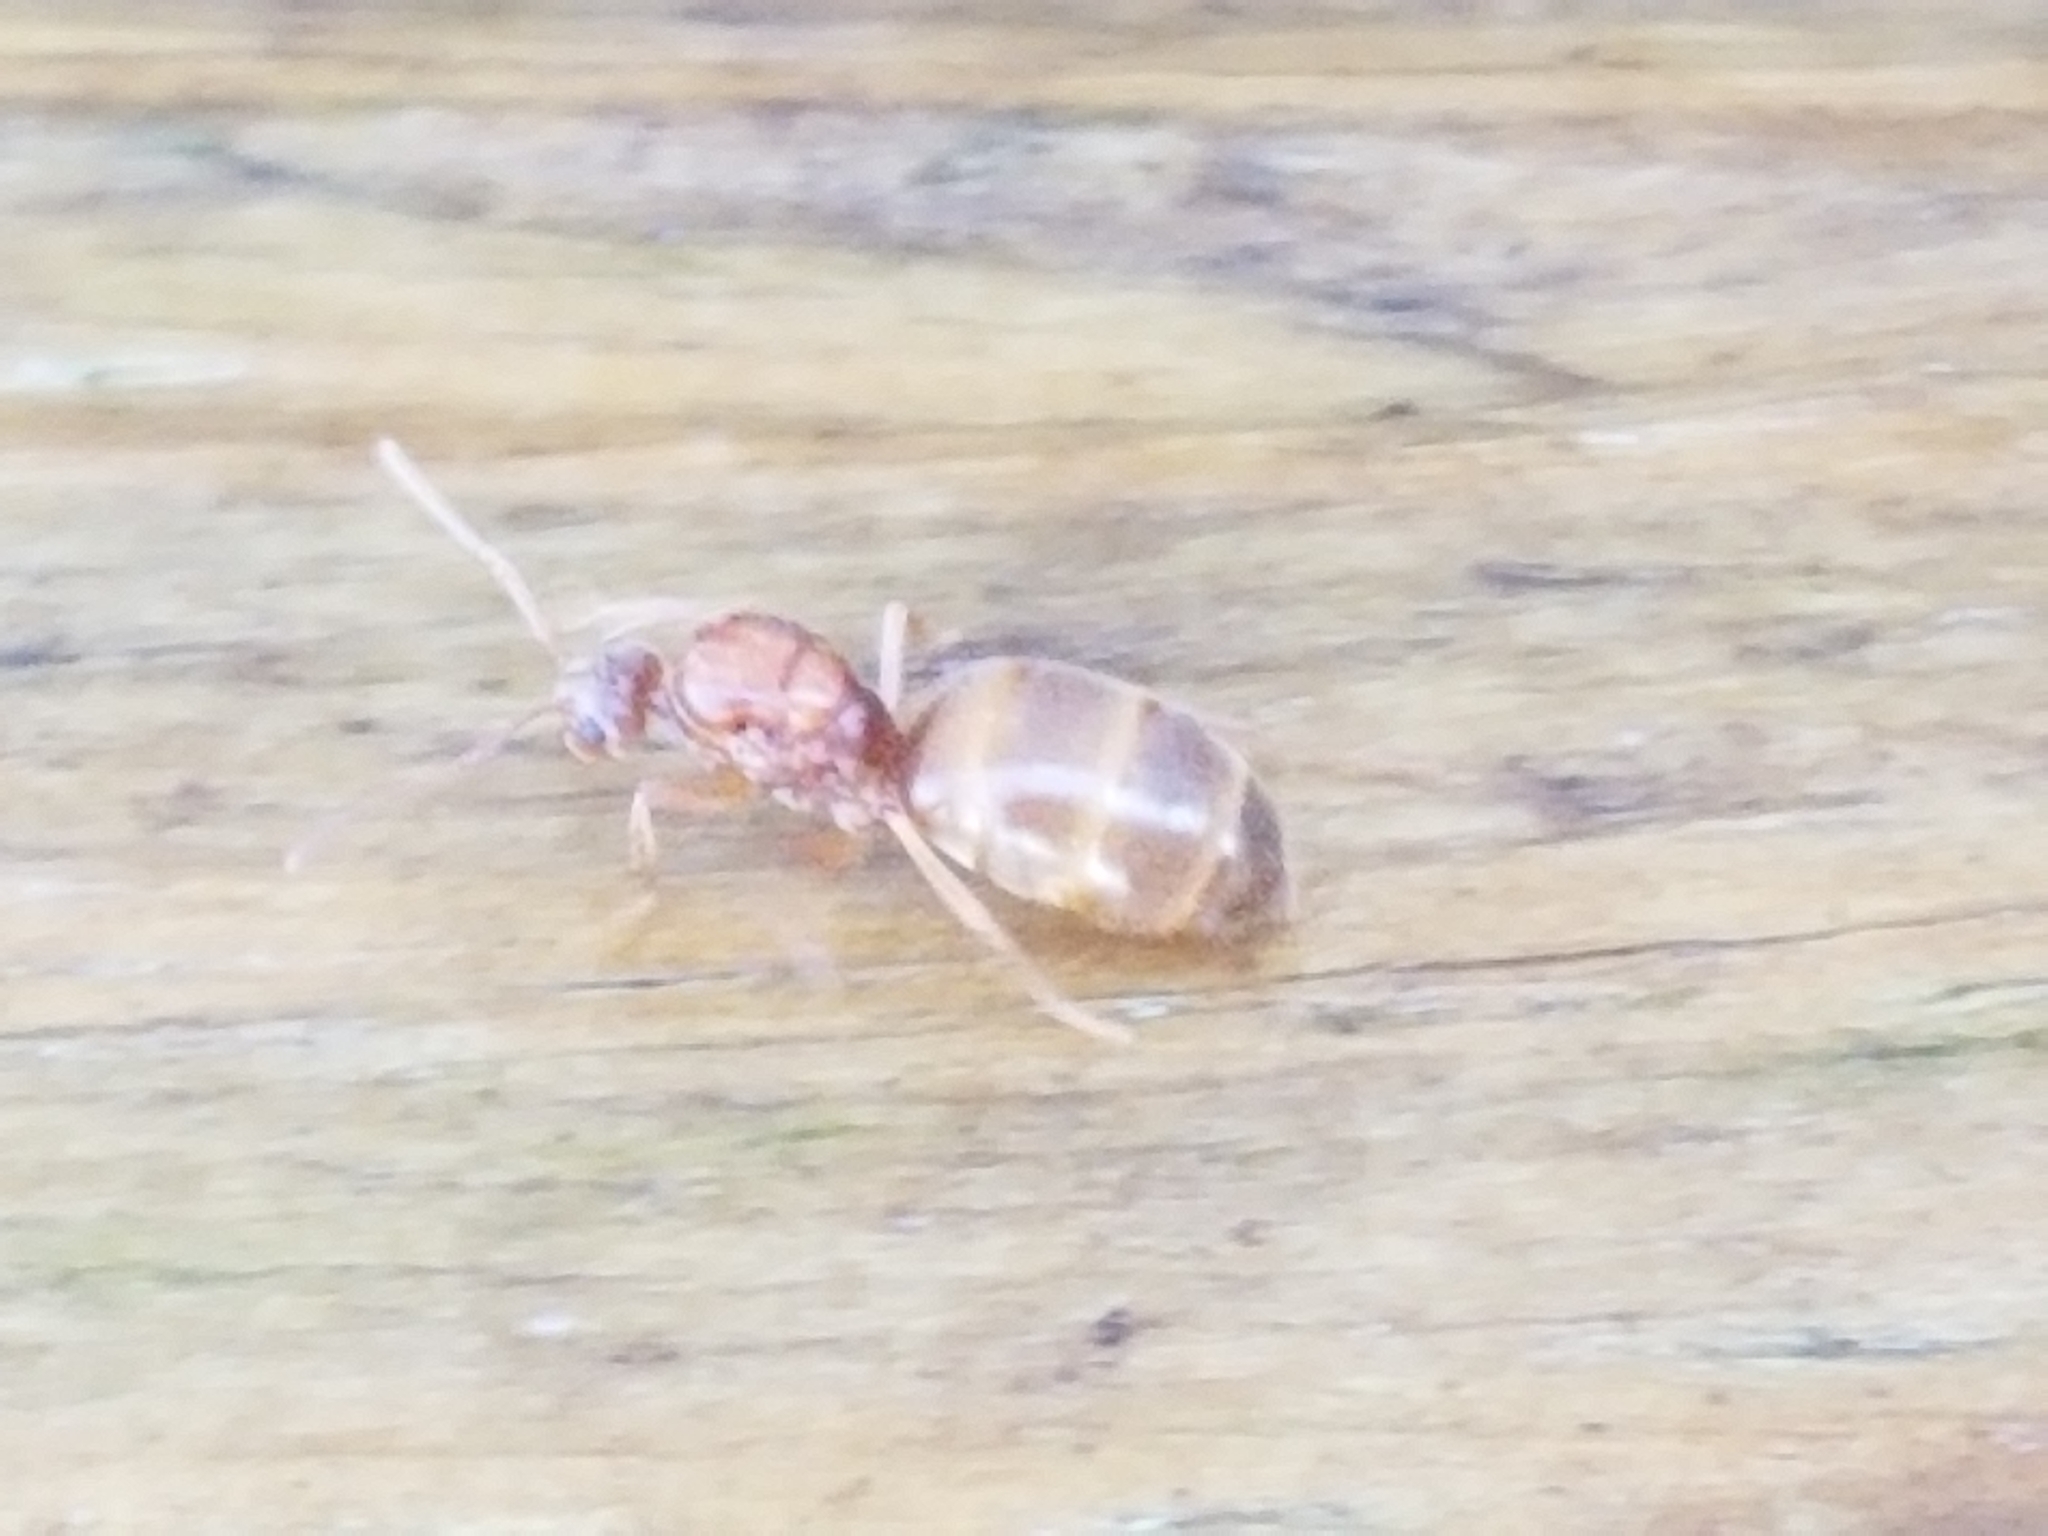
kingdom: Animalia
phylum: Arthropoda
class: Insecta
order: Hymenoptera
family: Formicidae
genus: Prenolepis
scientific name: Prenolepis imparis
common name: Small honey ant
